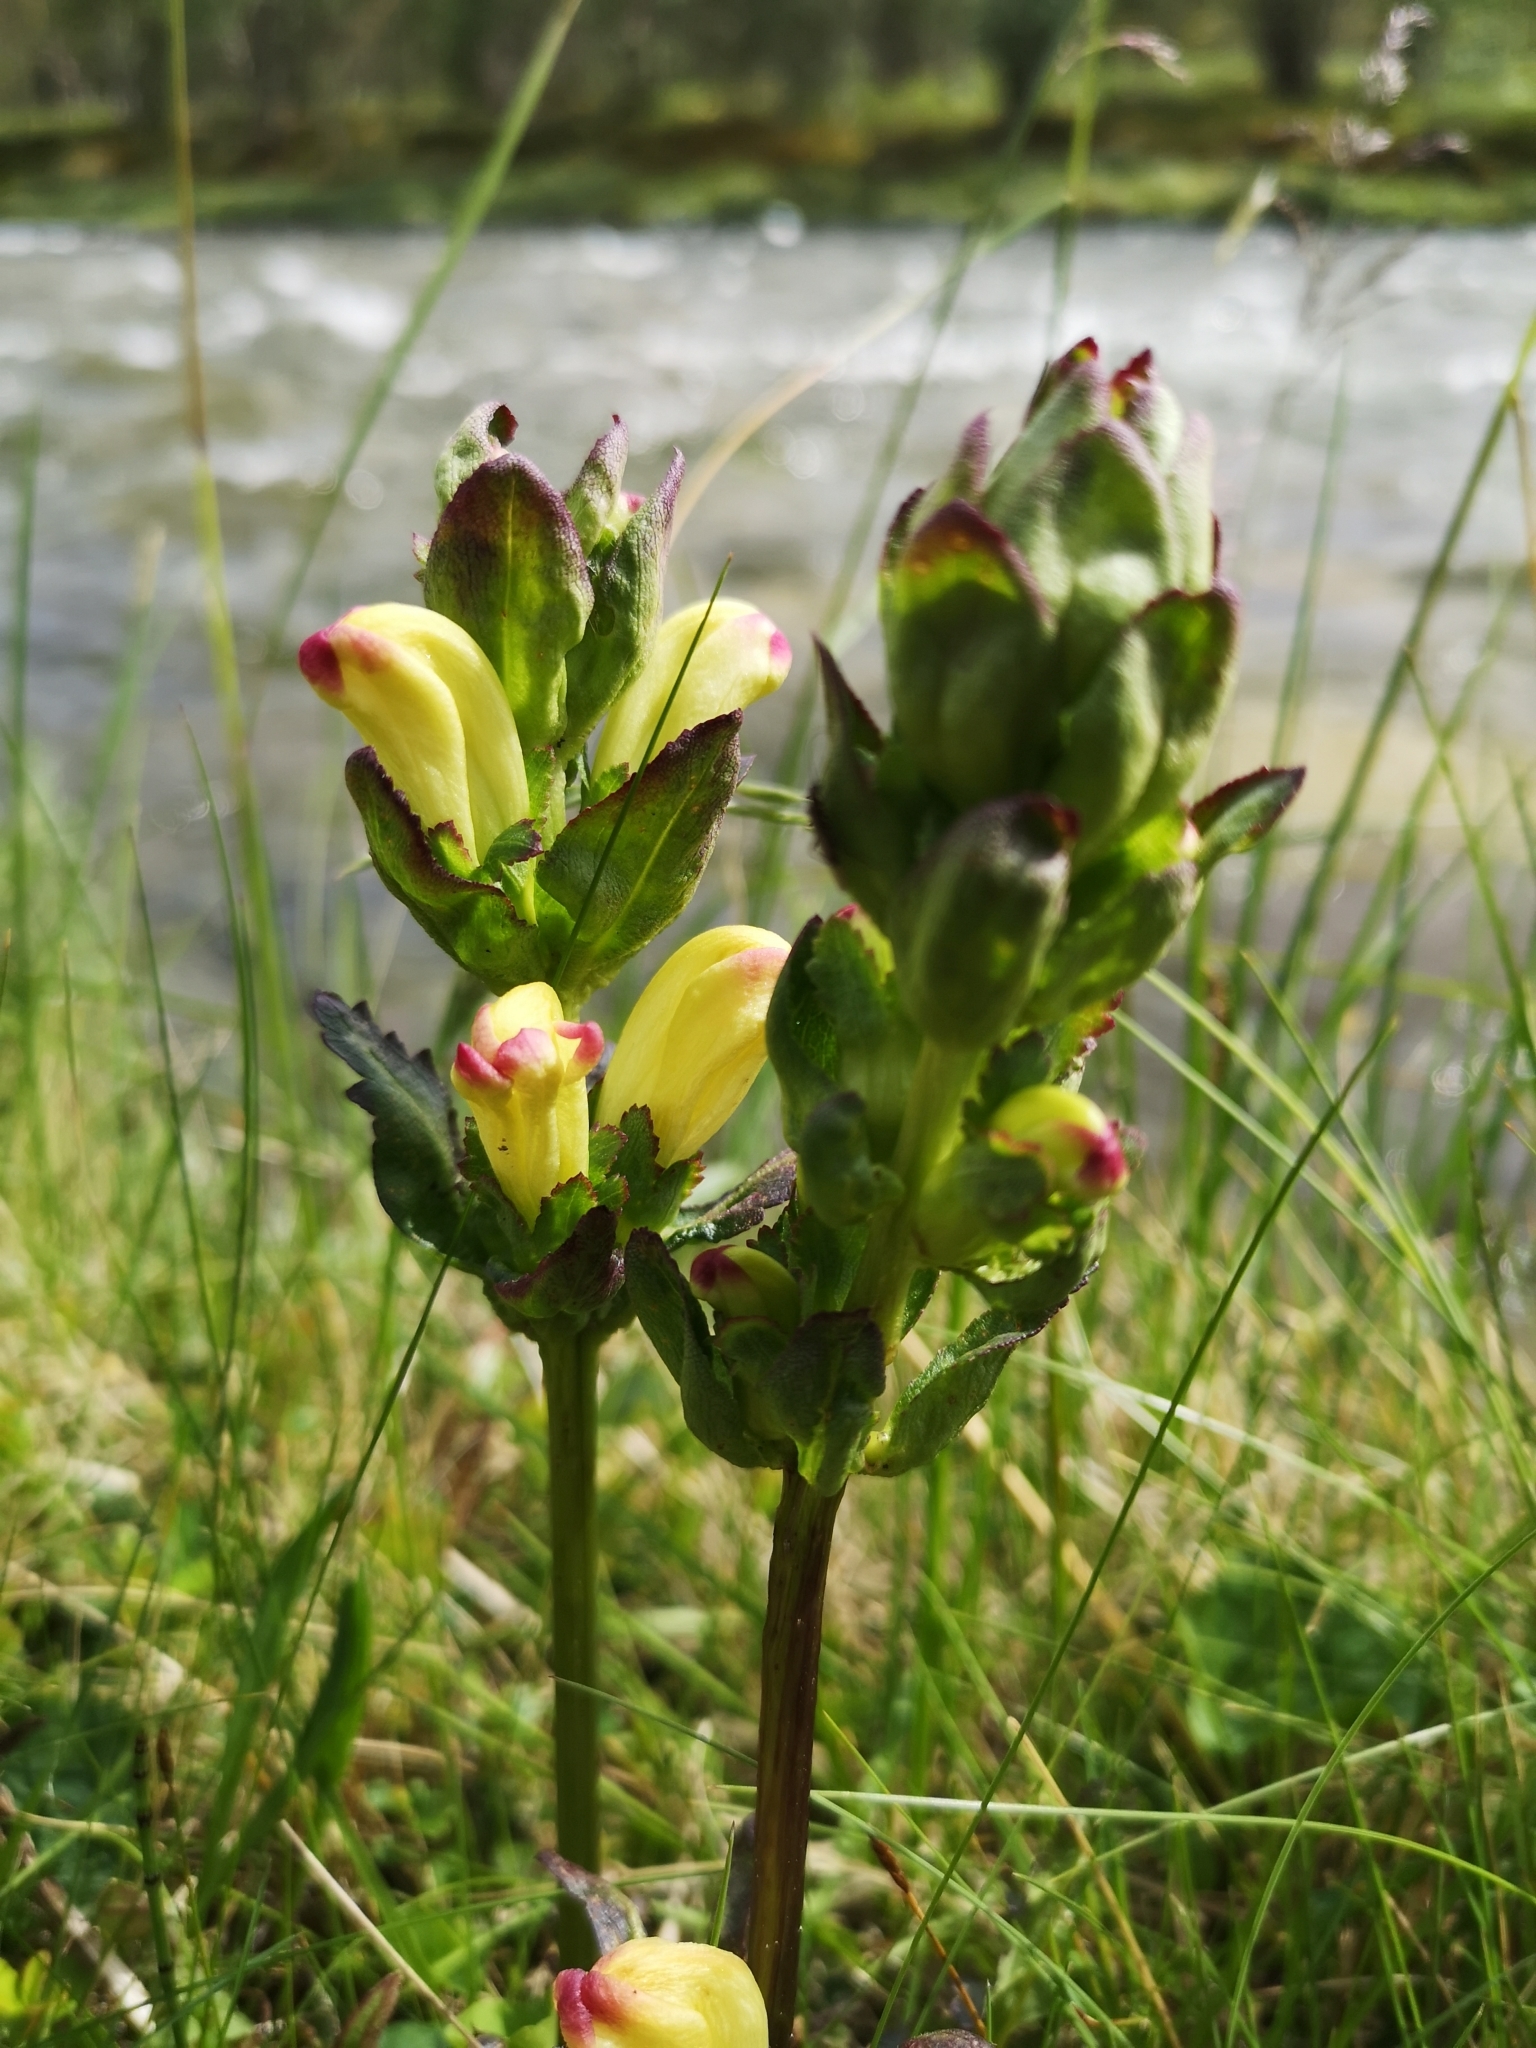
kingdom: Plantae
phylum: Tracheophyta
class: Magnoliopsida
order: Lamiales
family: Orobanchaceae
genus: Pedicularis
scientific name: Pedicularis sceptrum-carolinum
